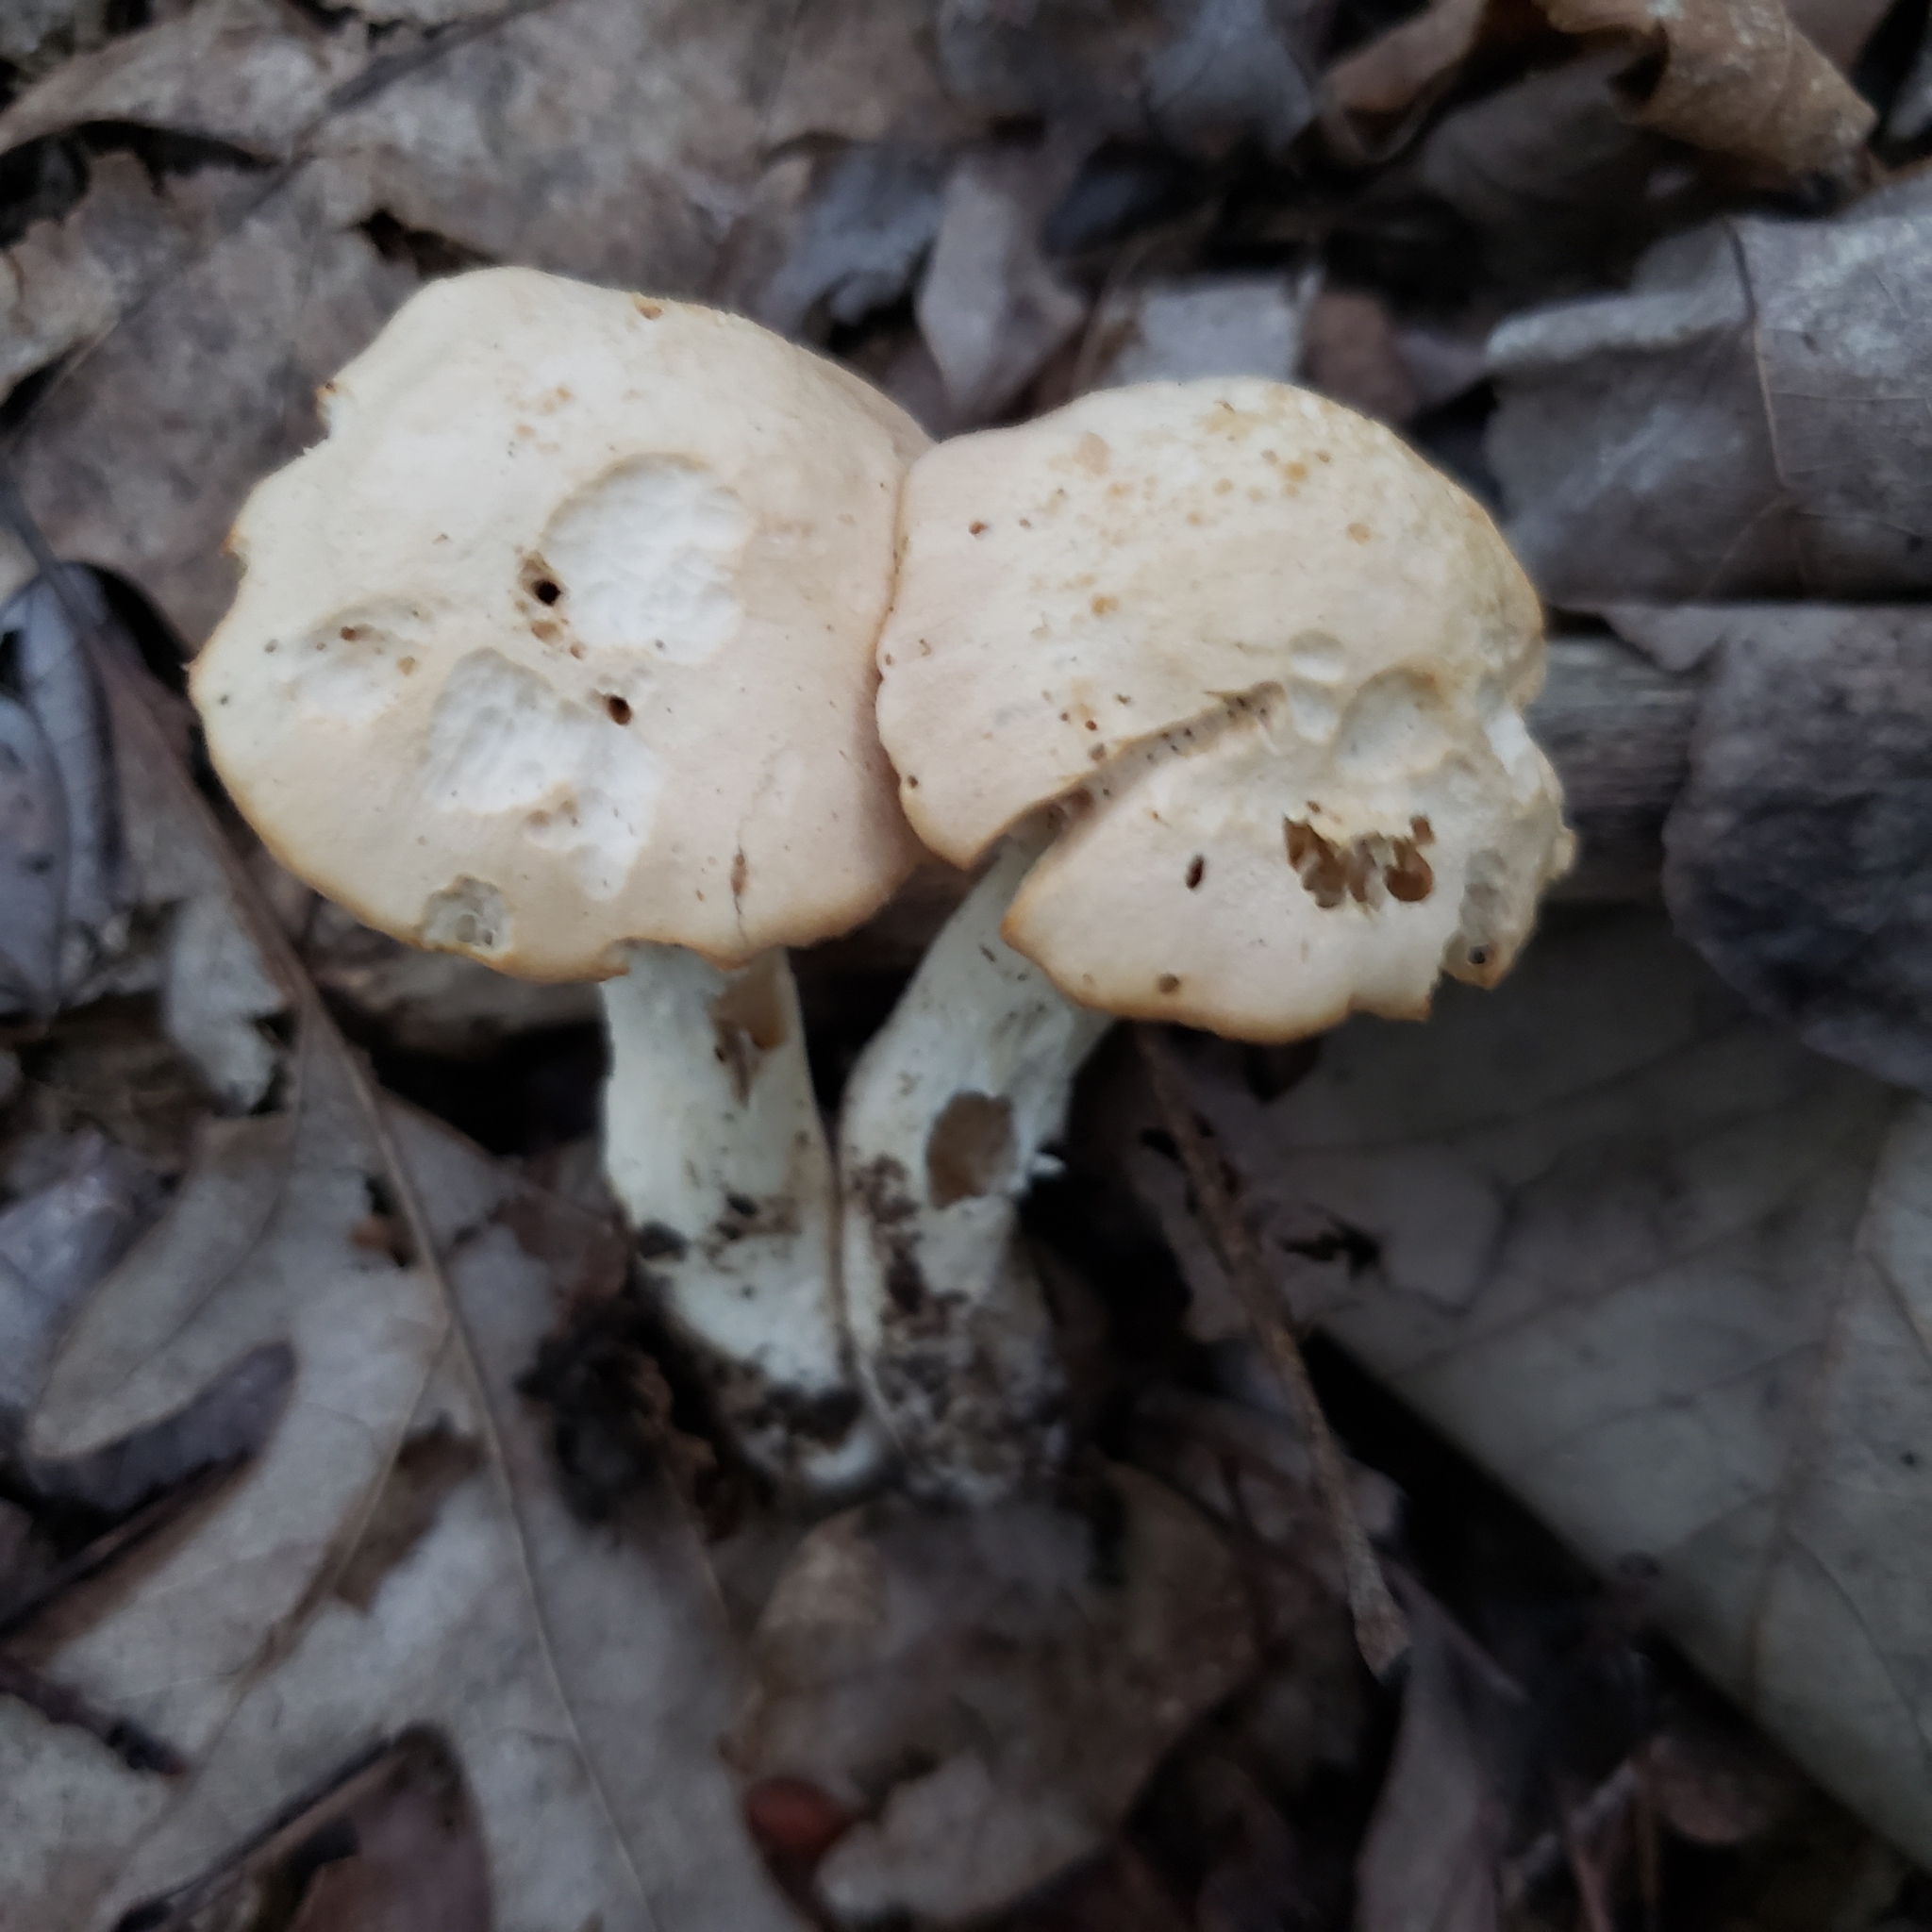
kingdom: Fungi
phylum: Basidiomycota
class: Agaricomycetes
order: Agaricales
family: Hygrophoraceae
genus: Cuphophyllus
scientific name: Cuphophyllus pratensis
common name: Meadow waxcap
